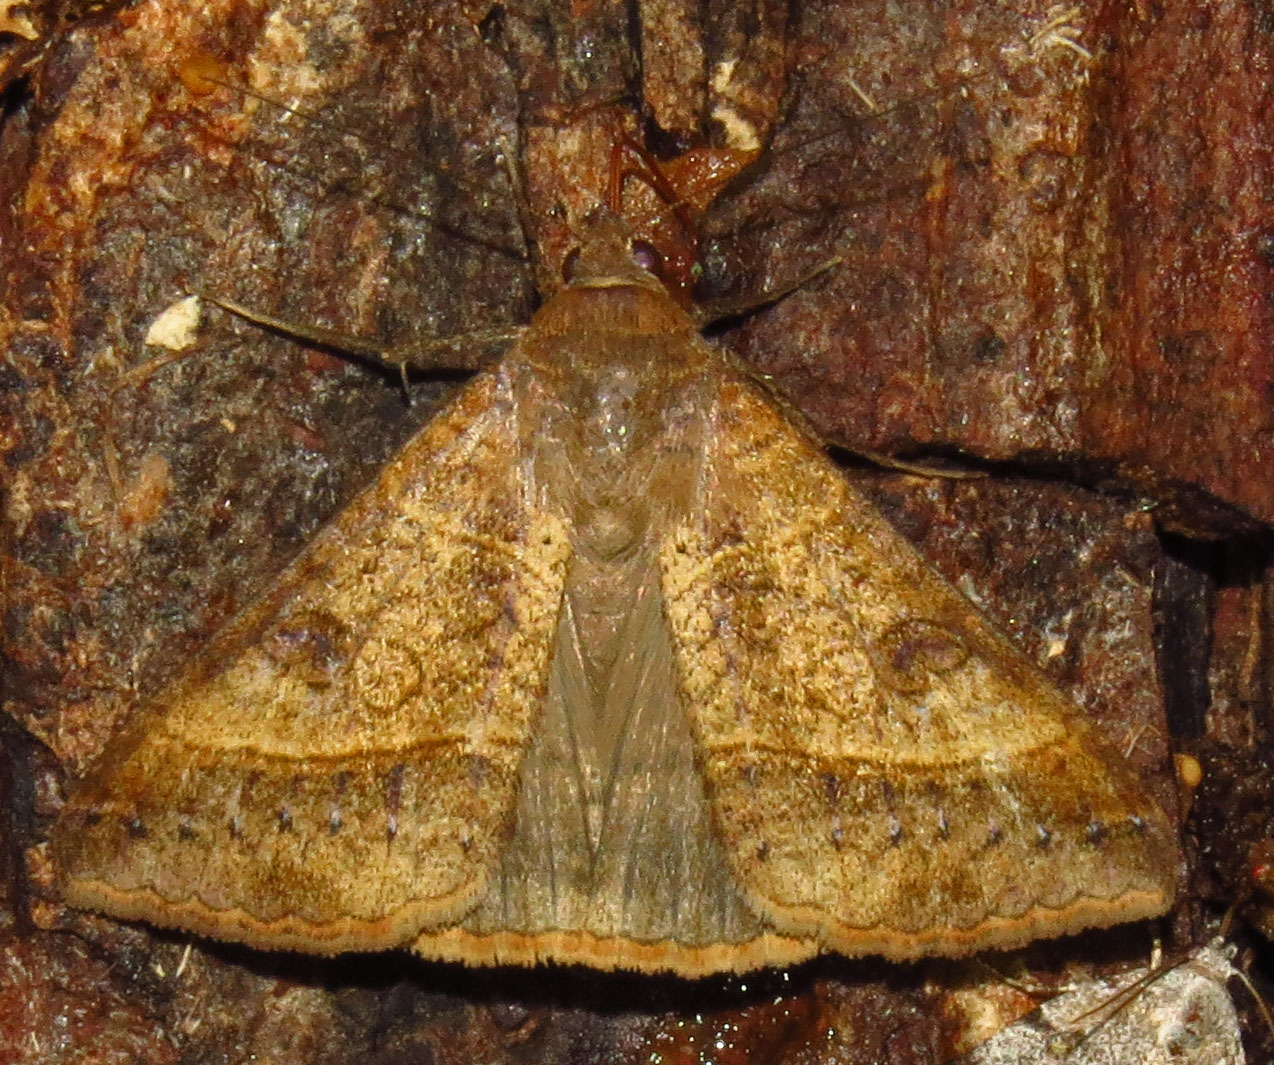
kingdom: Animalia
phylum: Arthropoda
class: Insecta
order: Lepidoptera
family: Erebidae
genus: Mocis
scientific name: Mocis latipes
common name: Striped grass looper
